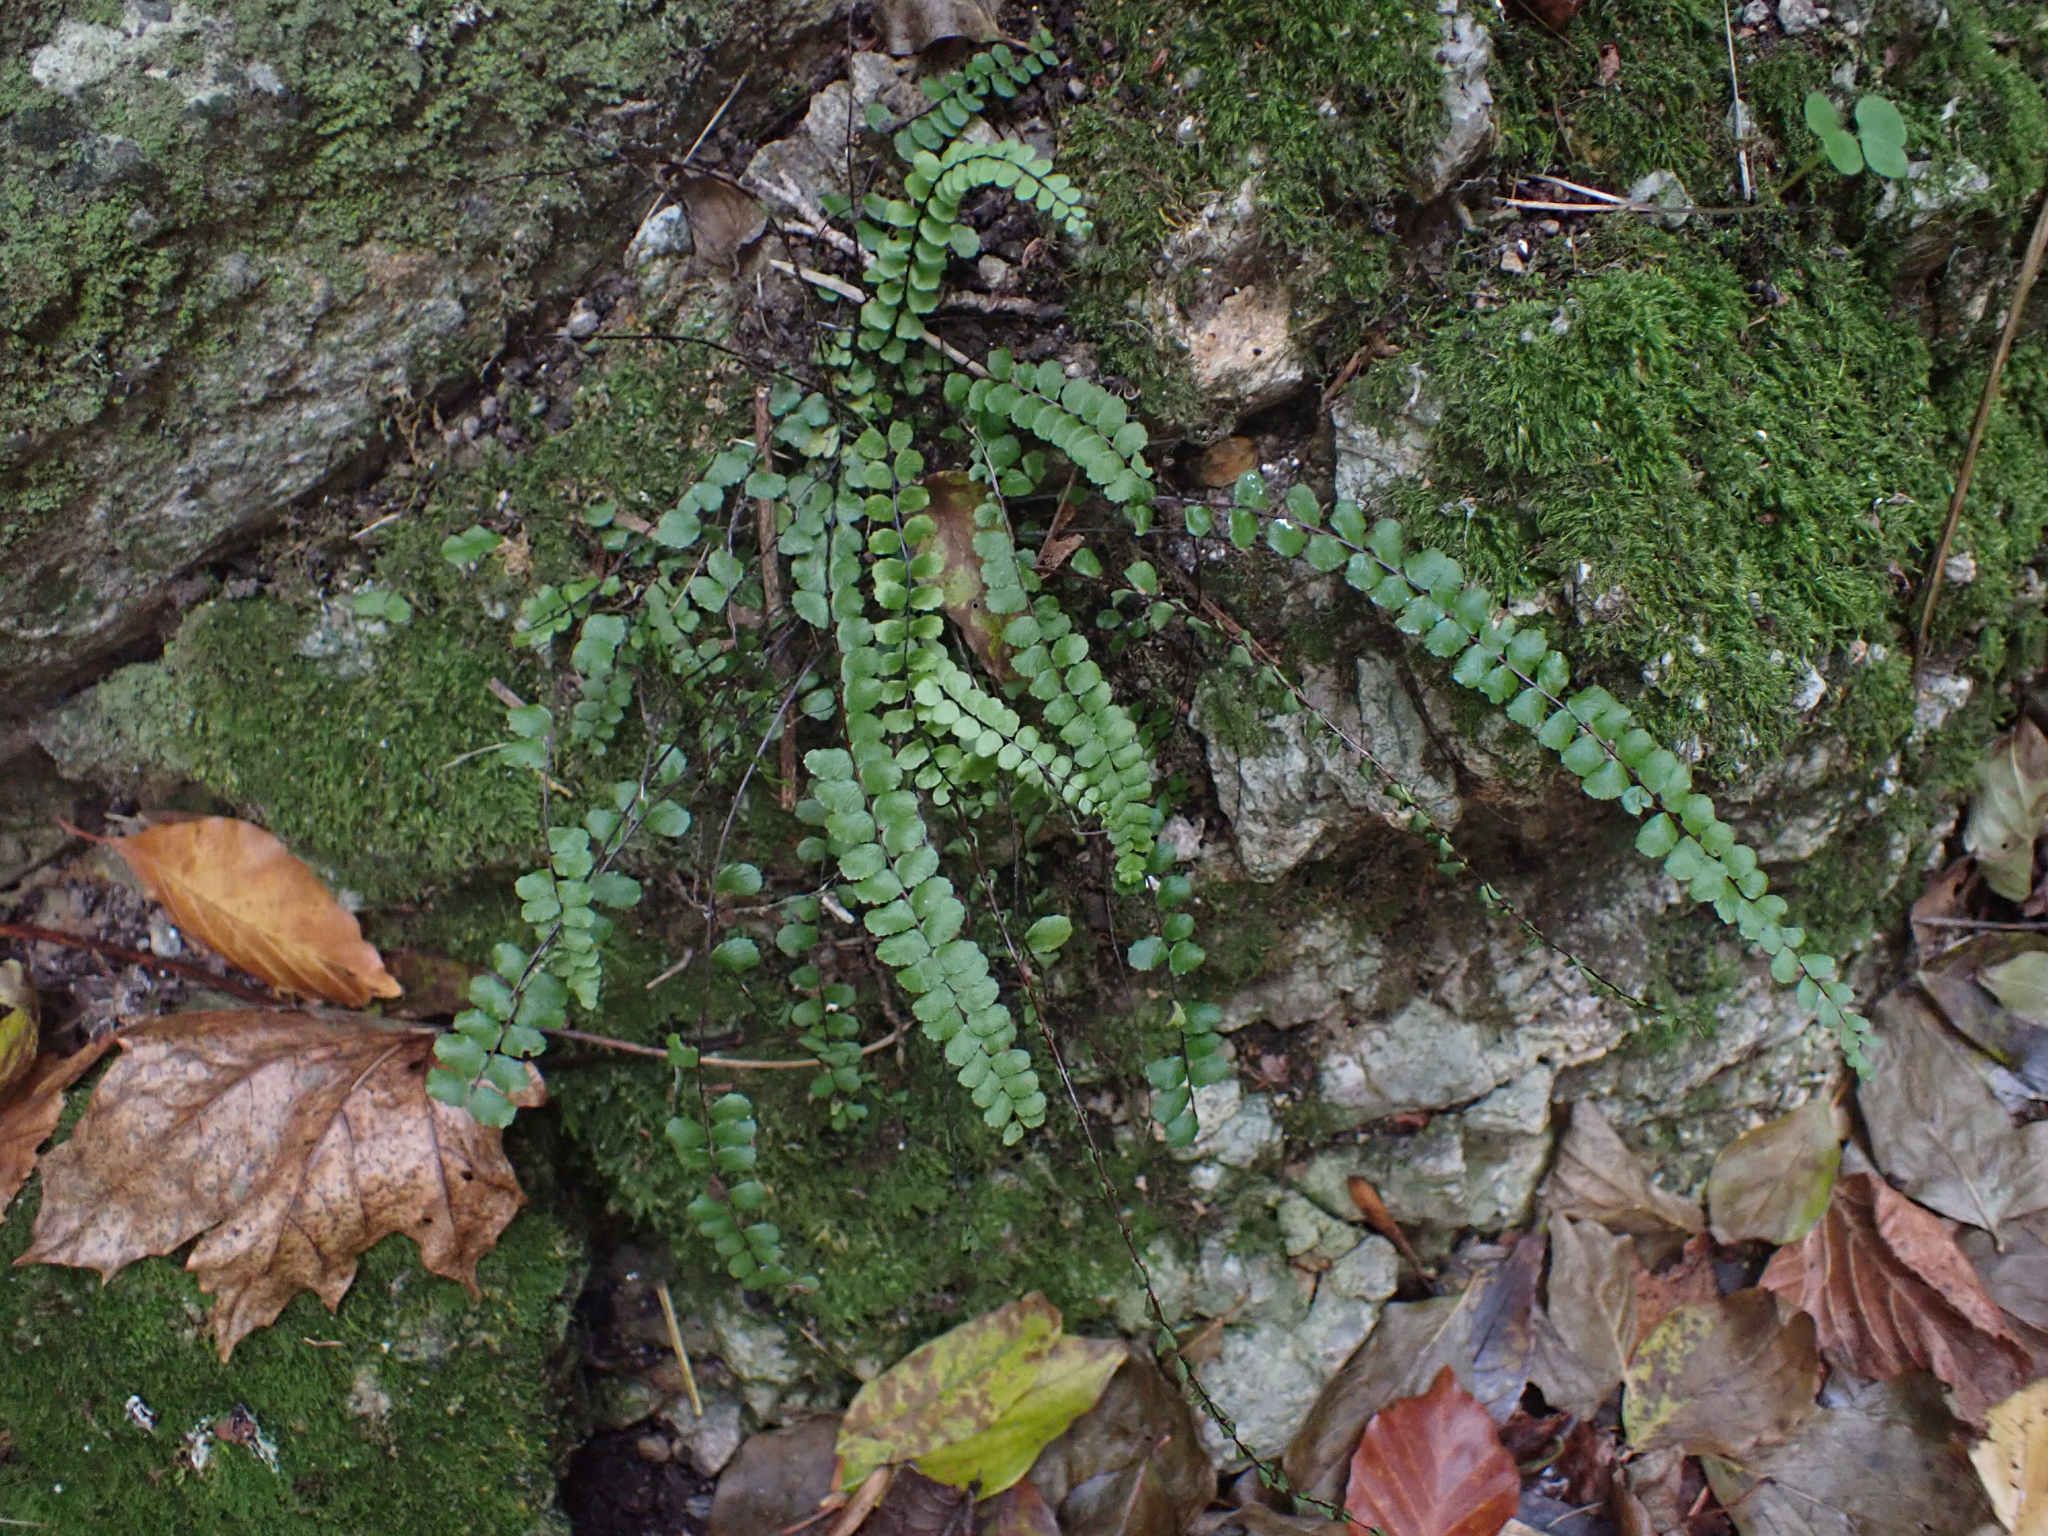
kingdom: Plantae
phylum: Tracheophyta
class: Polypodiopsida
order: Polypodiales
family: Aspleniaceae
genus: Asplenium
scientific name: Asplenium trichomanes
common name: Maidenhair spleenwort
